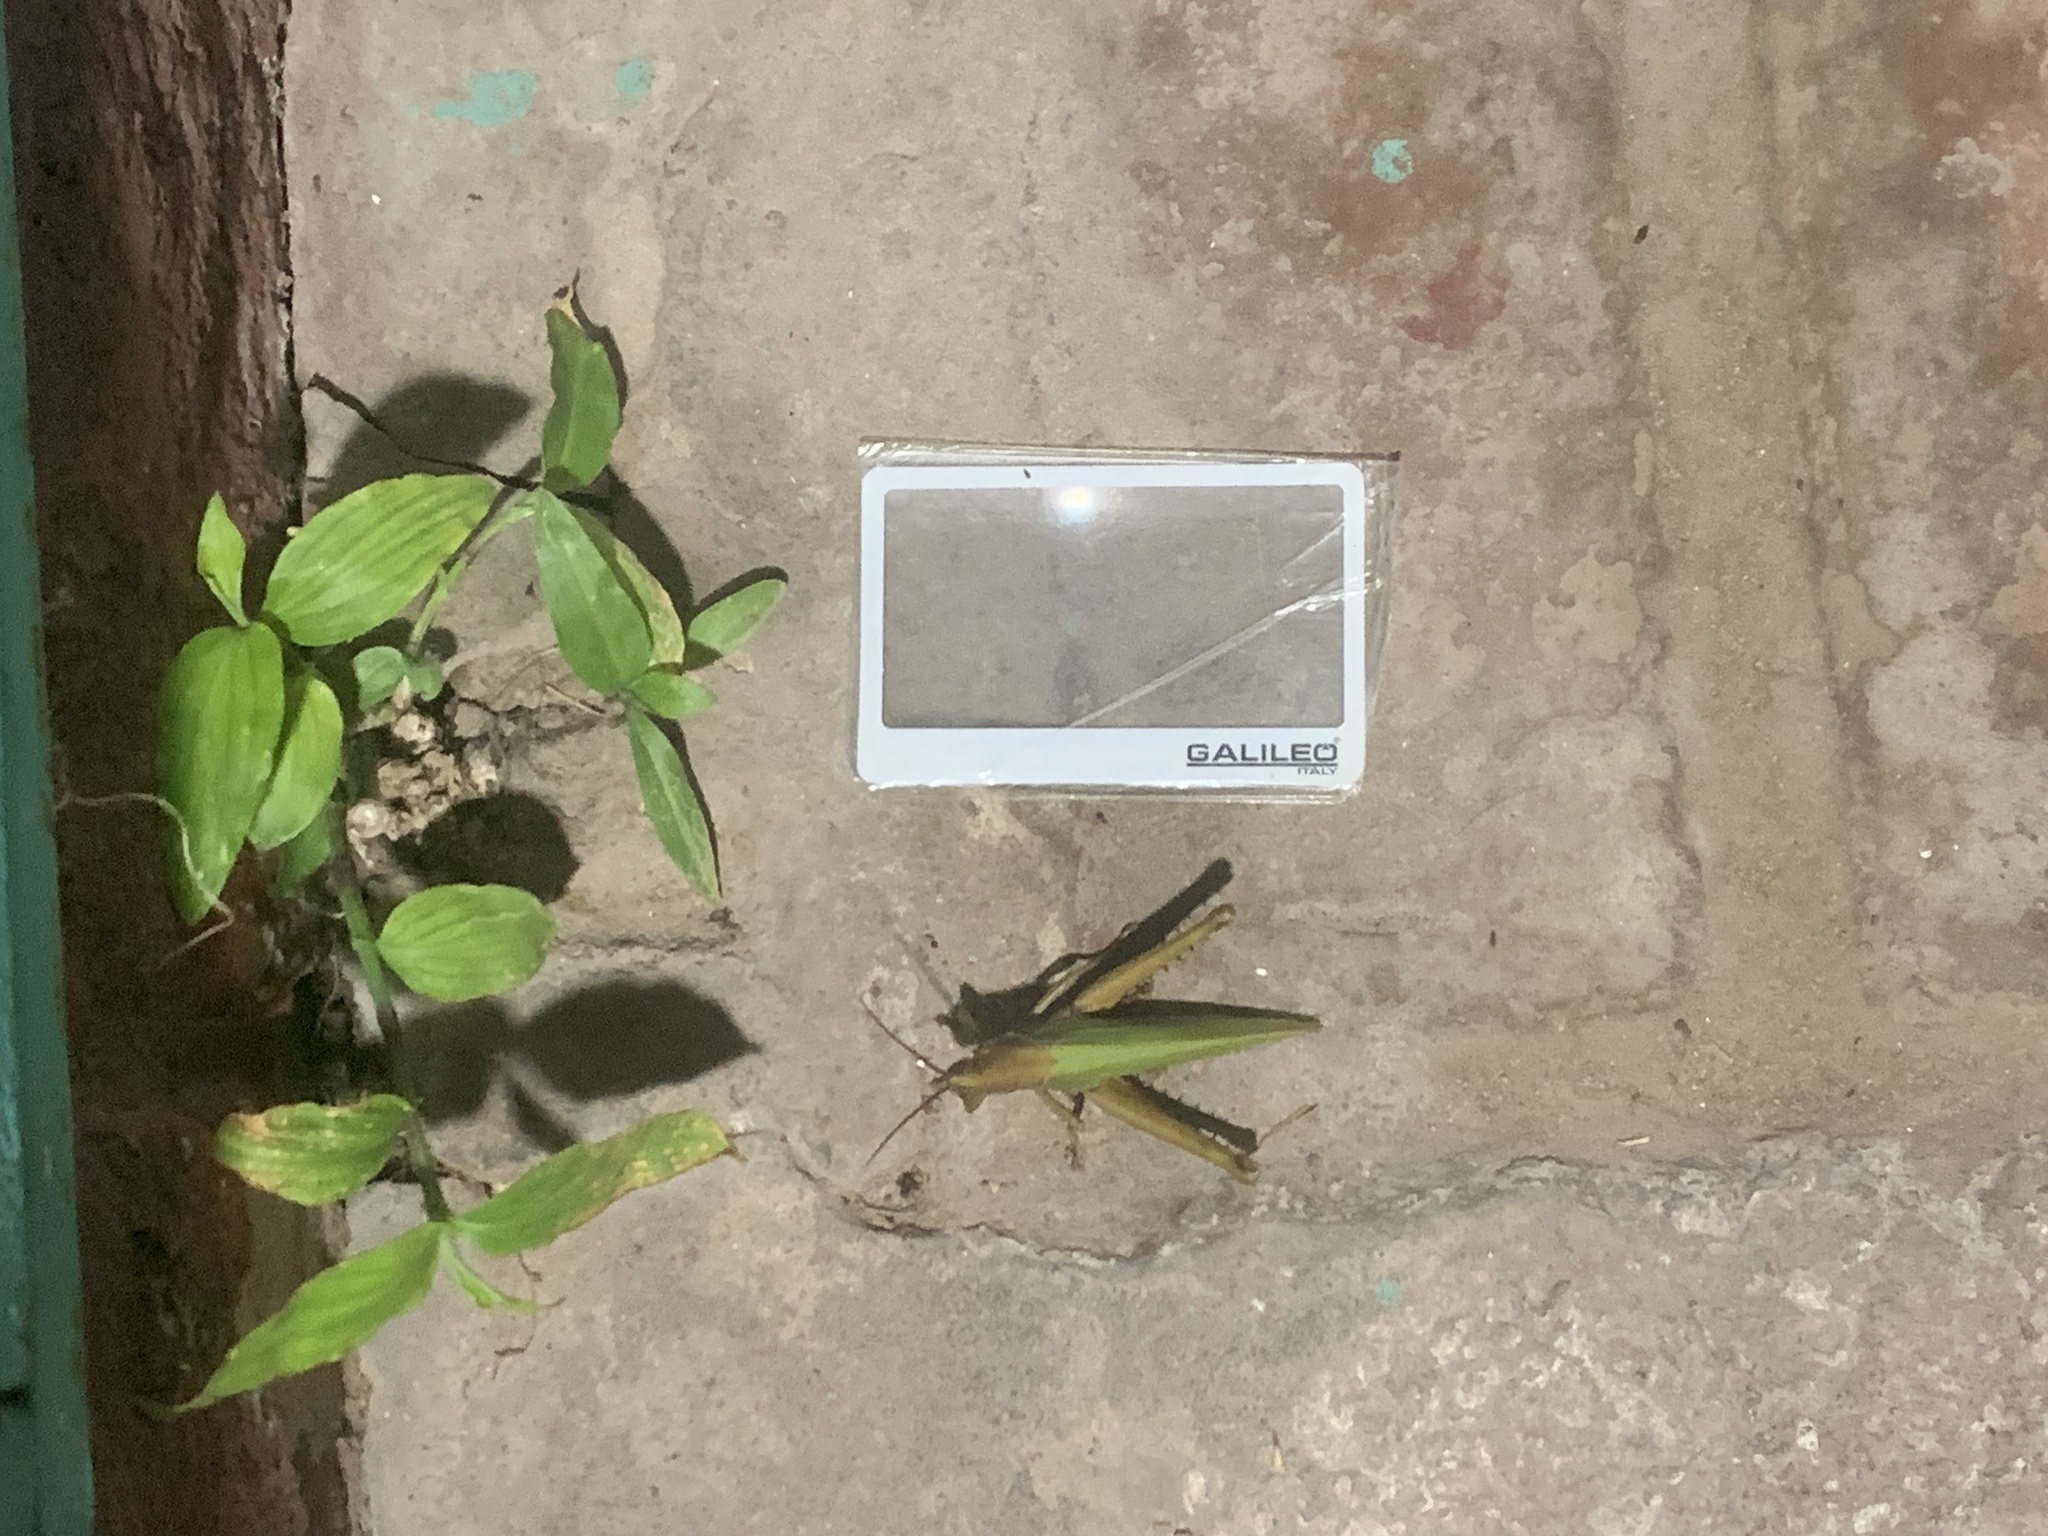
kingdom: Animalia
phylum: Arthropoda
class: Insecta
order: Orthoptera
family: Romaleidae
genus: Coryacris
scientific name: Coryacris angustipennis
